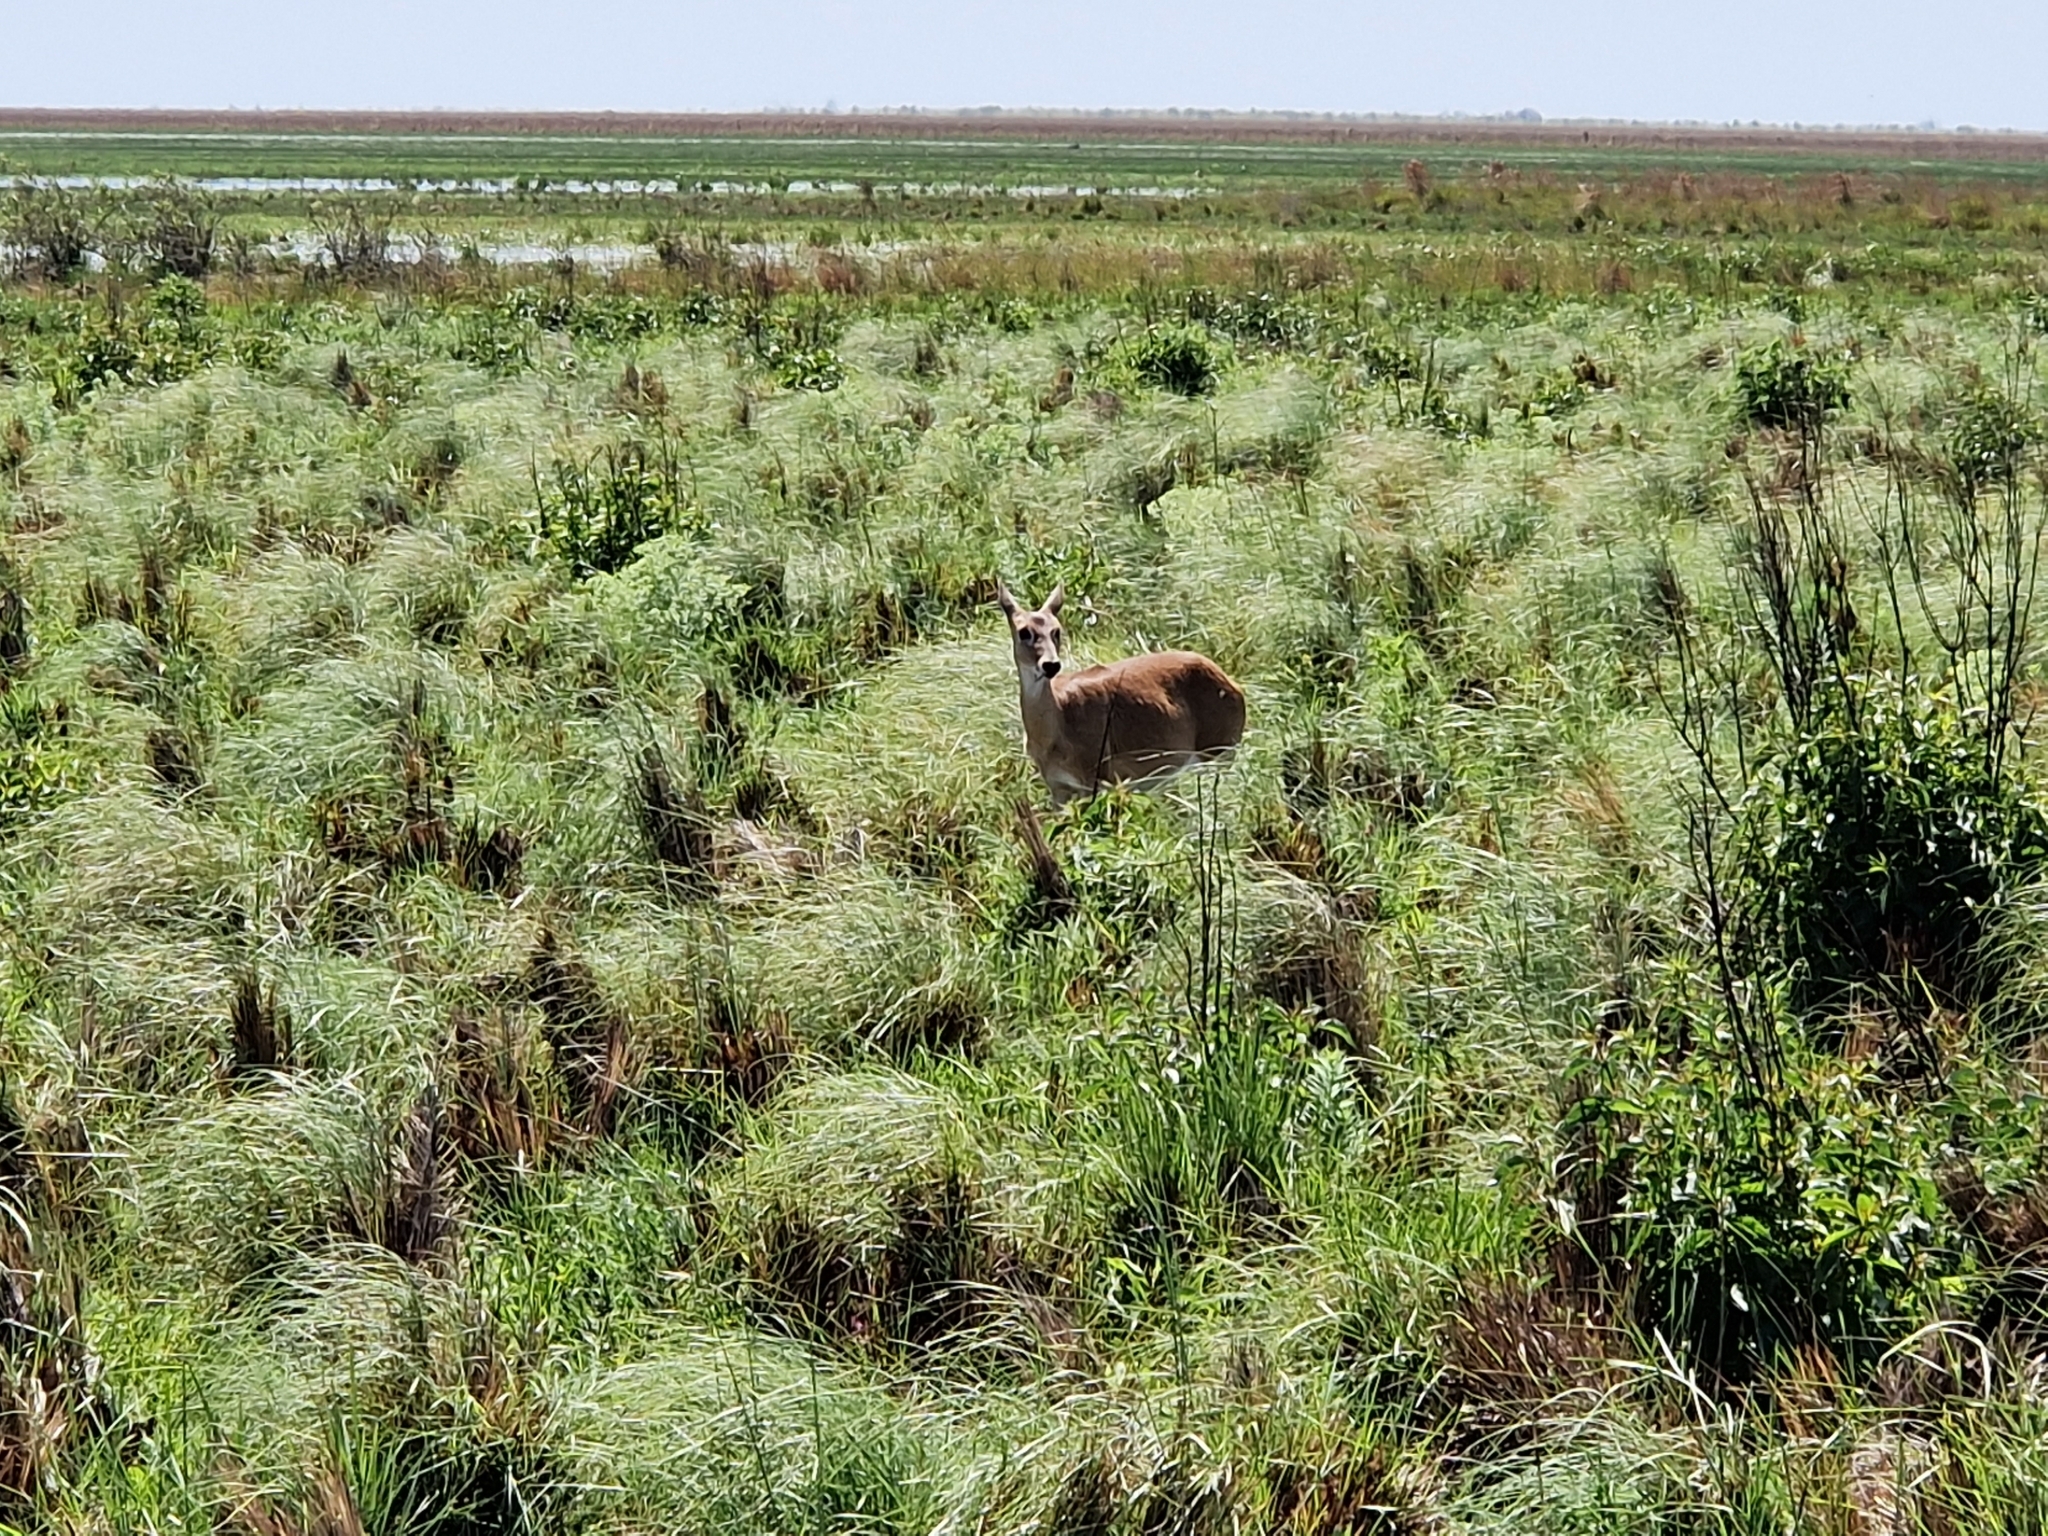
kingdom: Animalia
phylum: Chordata
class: Mammalia
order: Artiodactyla
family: Cervidae
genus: Ozotoceros
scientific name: Ozotoceros bezoarticus
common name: Pampas deer
